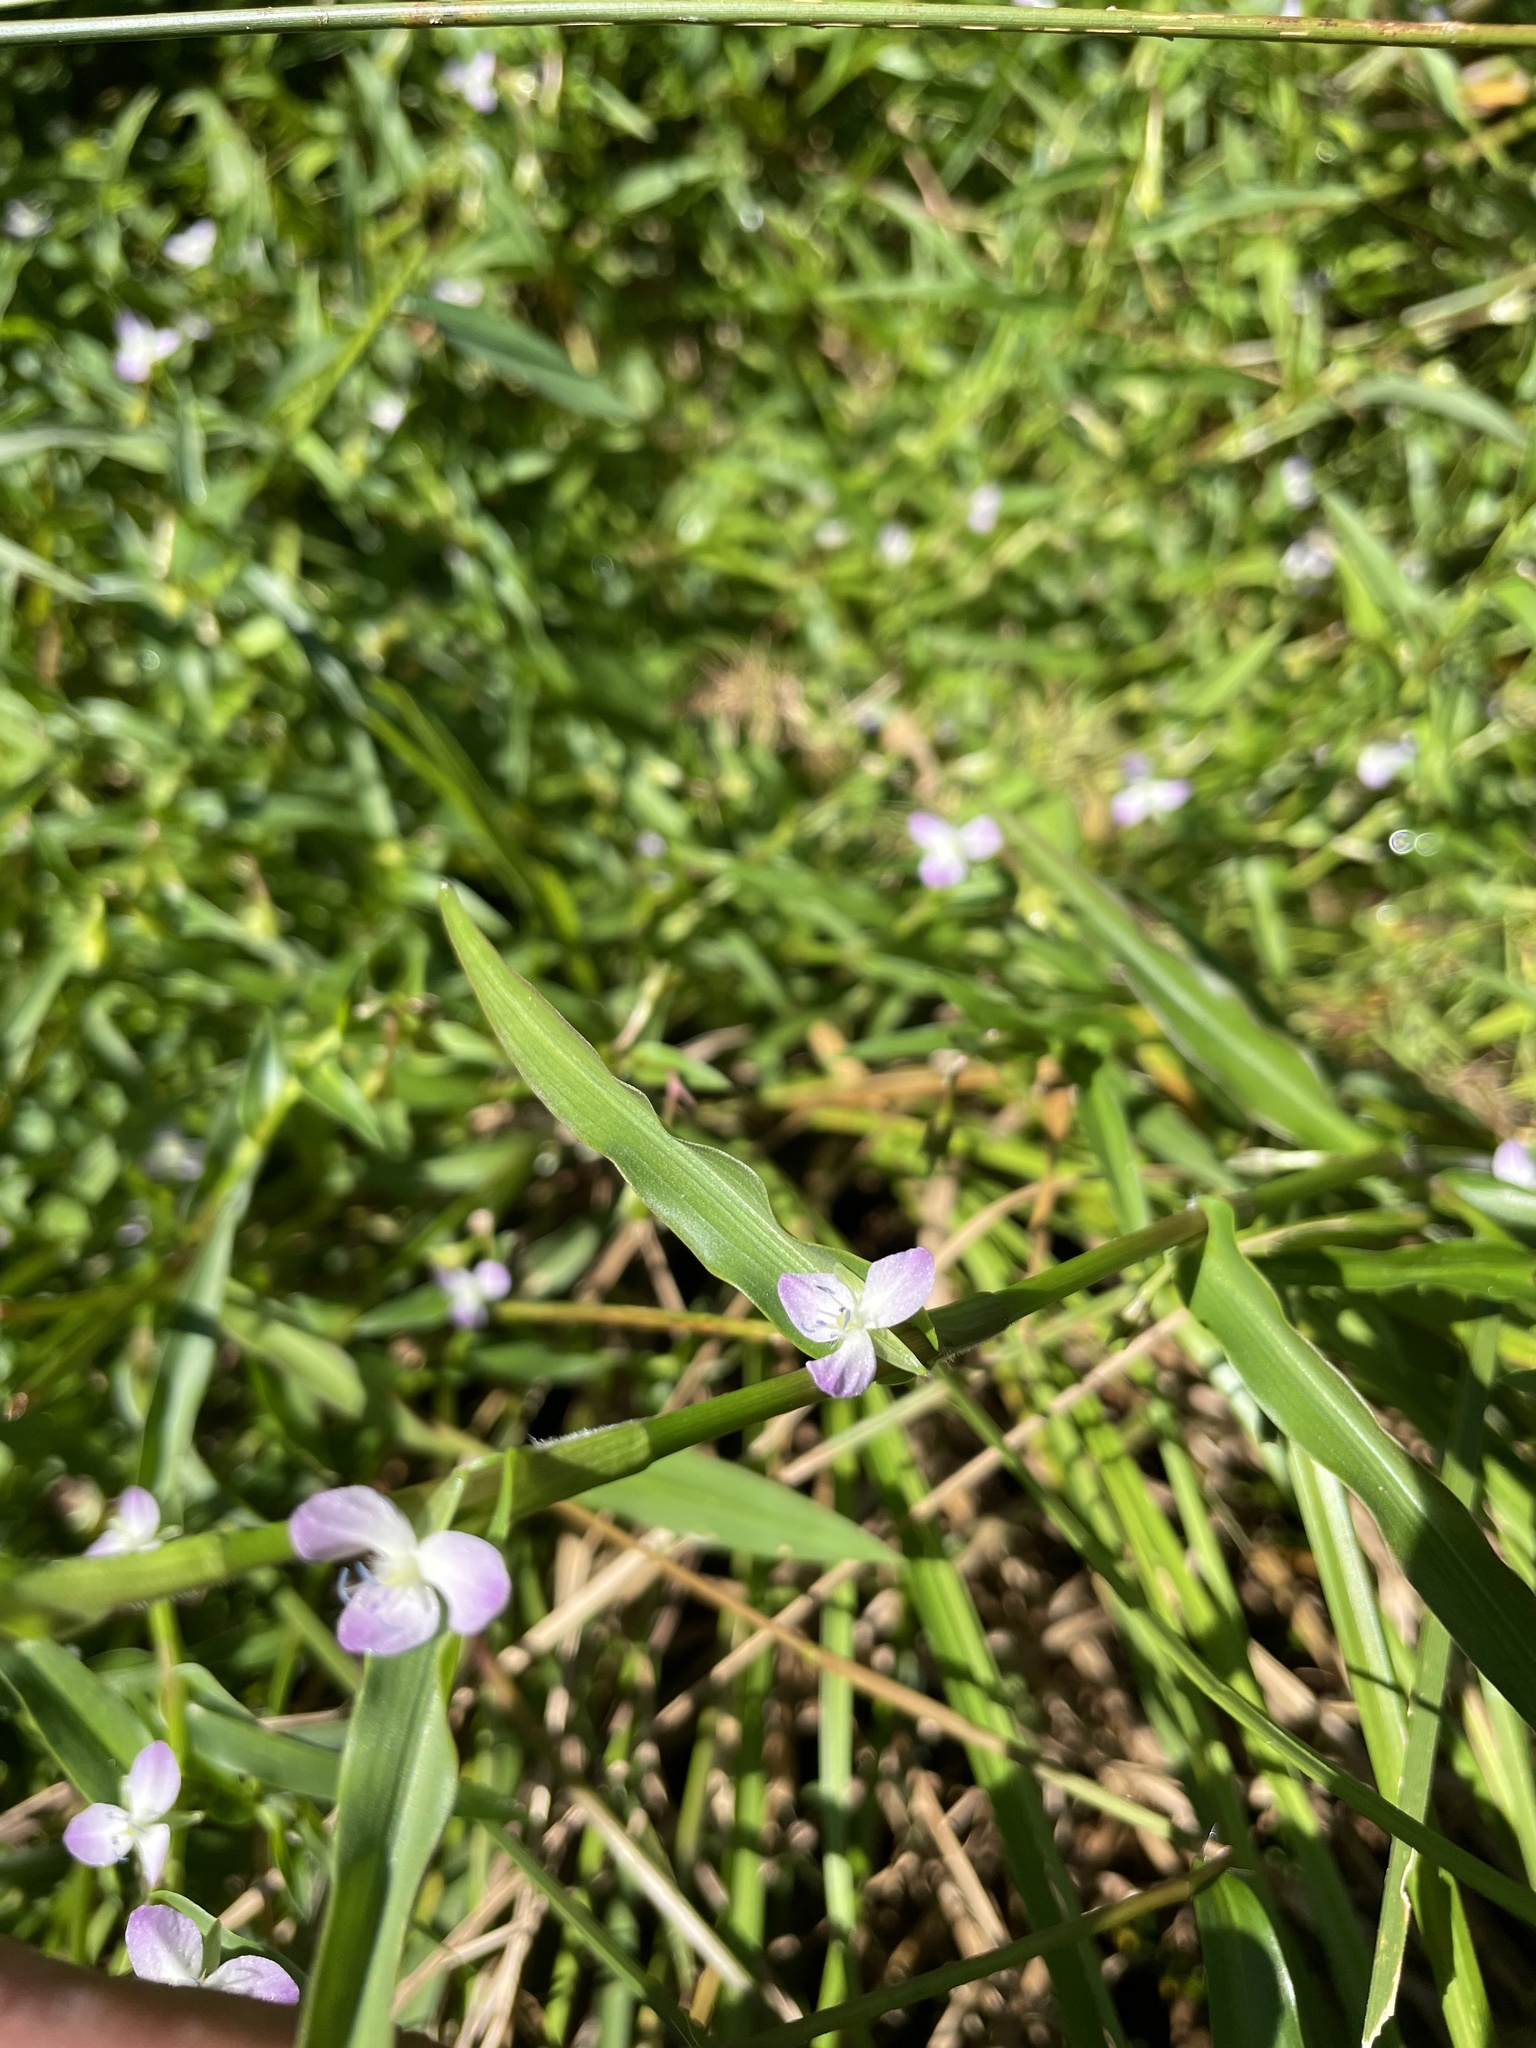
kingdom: Plantae
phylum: Tracheophyta
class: Liliopsida
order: Commelinales
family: Commelinaceae
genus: Murdannia
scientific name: Murdannia keisak
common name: Wartremoving herb
